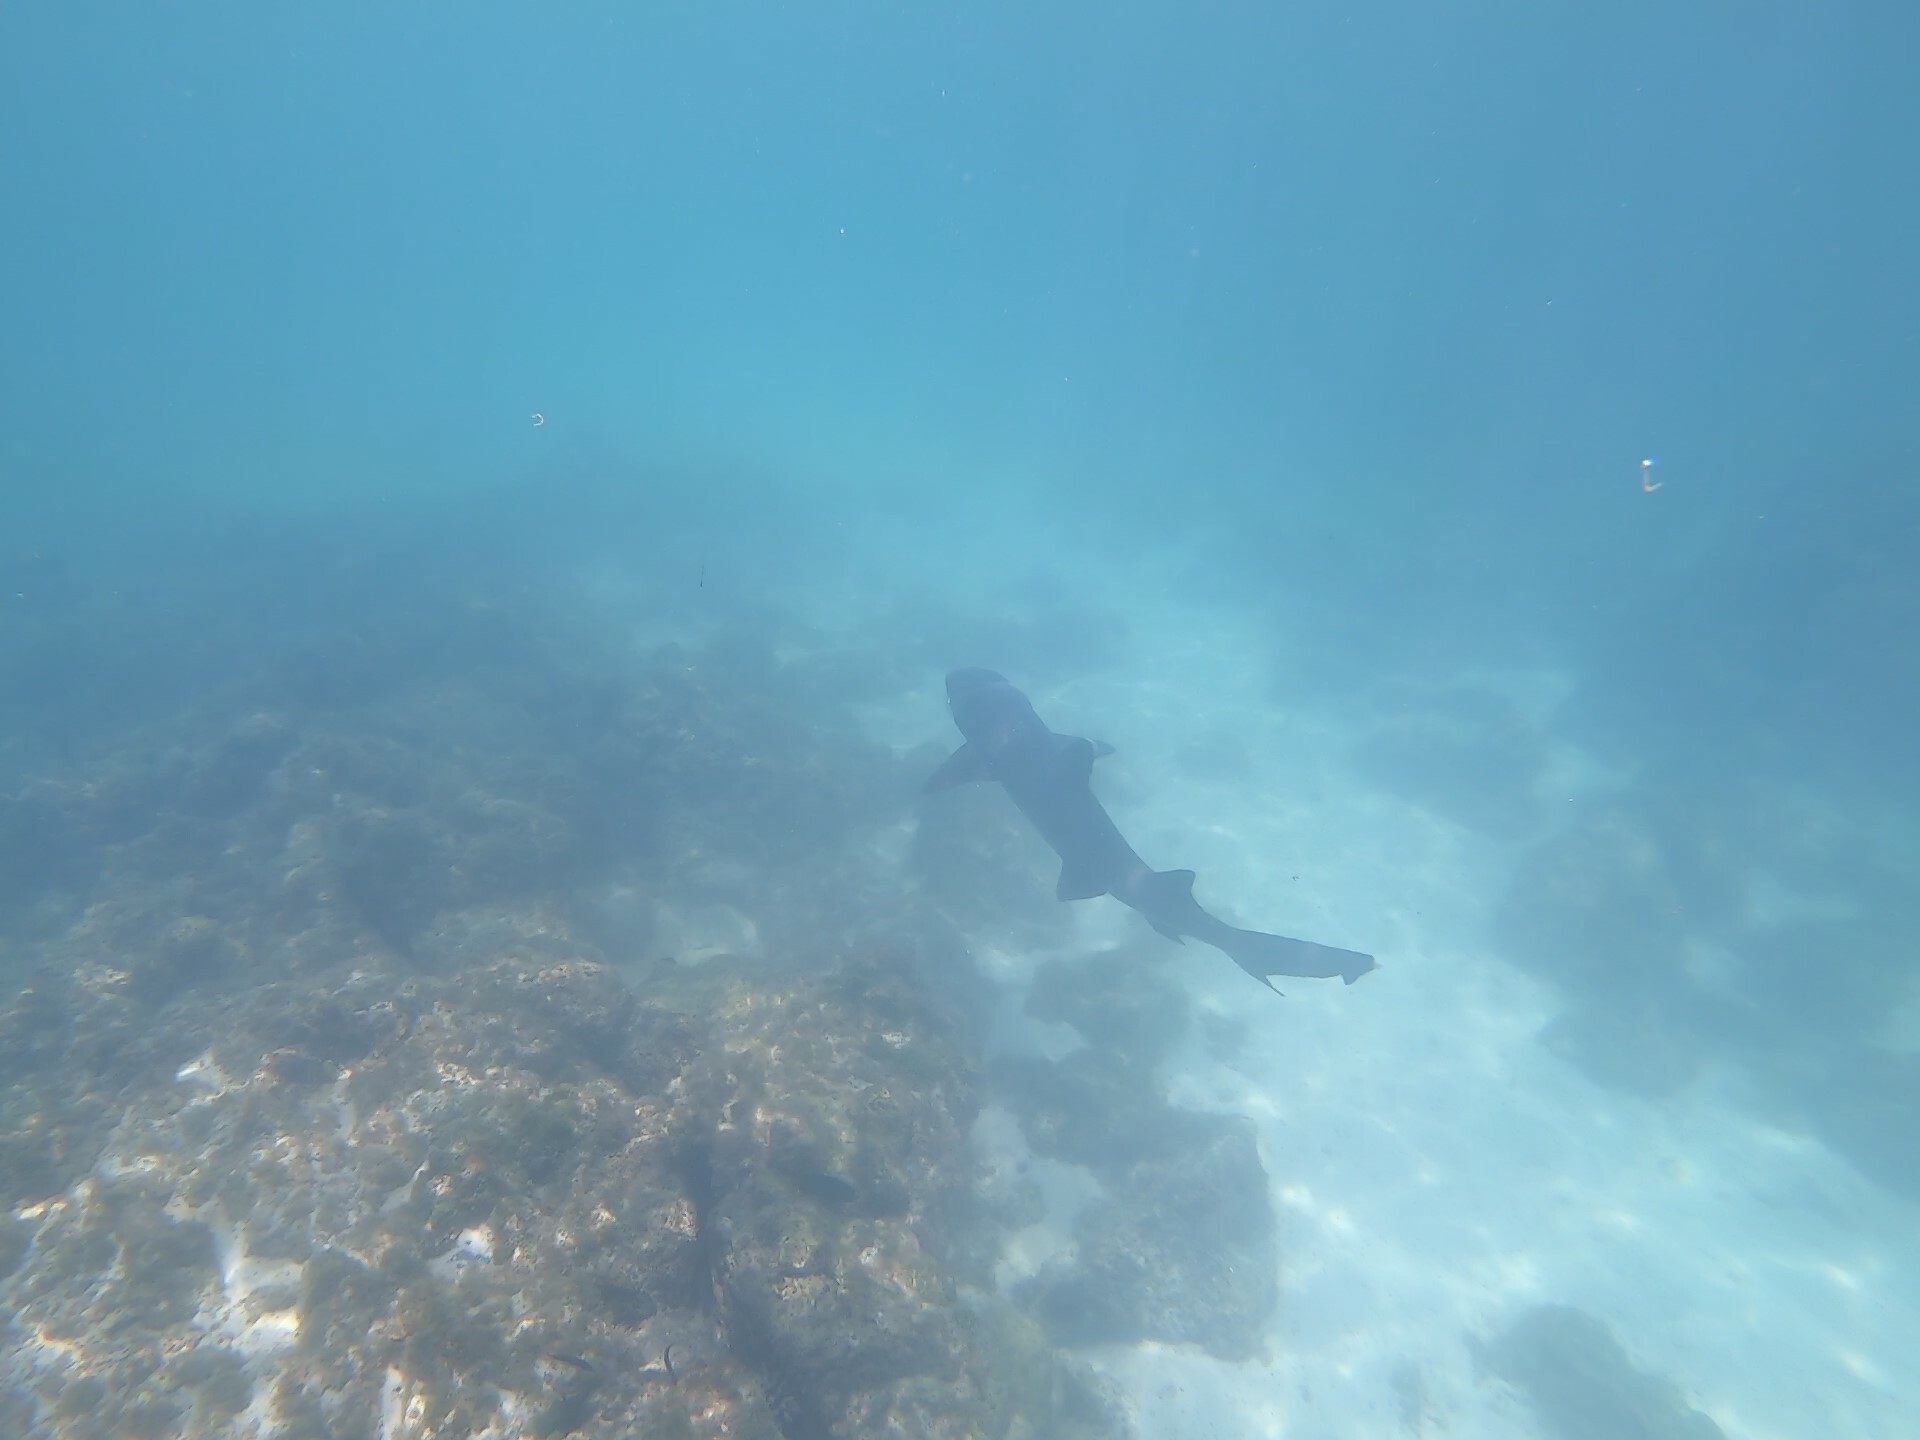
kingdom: Animalia
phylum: Chordata
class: Elasmobranchii
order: Carcharhiniformes
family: Carcharhinidae
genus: Triaenodon
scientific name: Triaenodon obesus
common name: Whitetip reef shark
